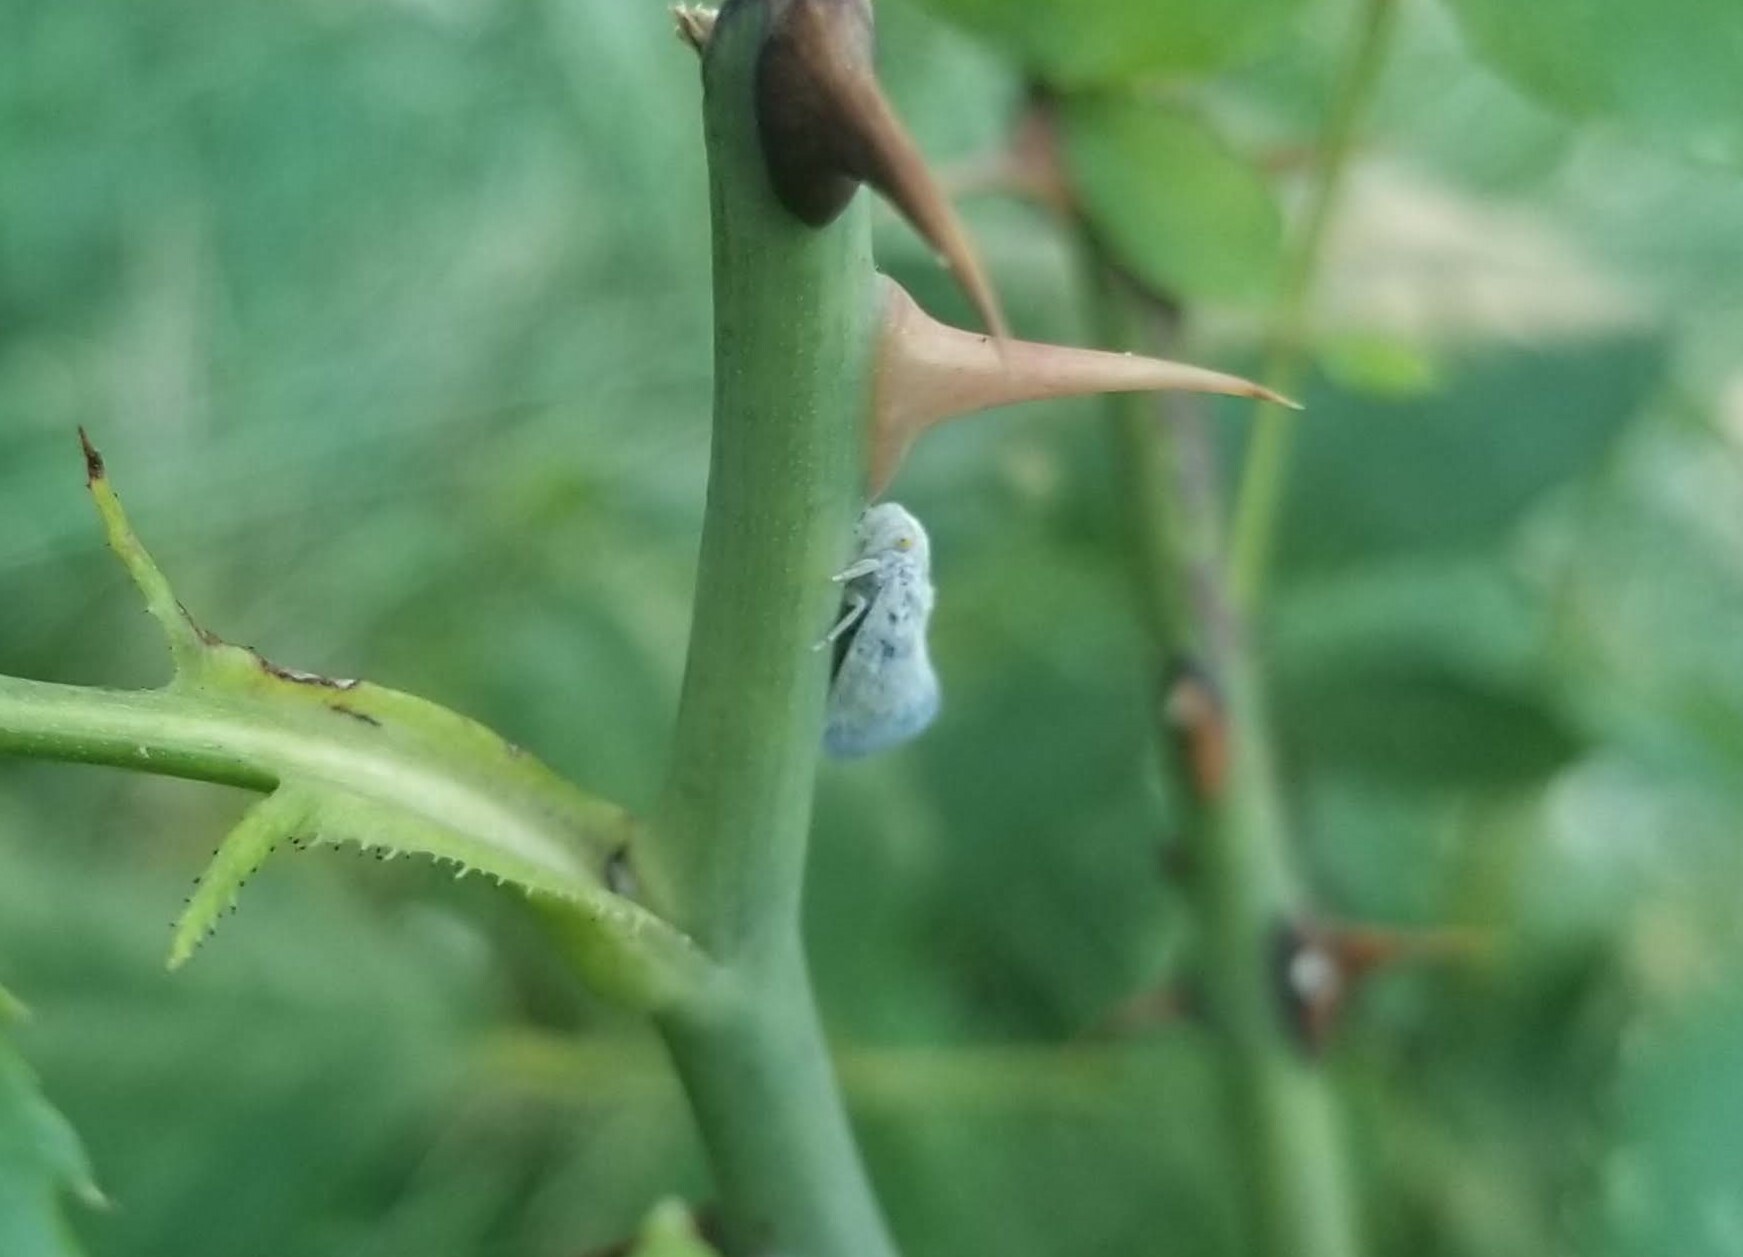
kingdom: Animalia
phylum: Arthropoda
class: Insecta
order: Hemiptera
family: Flatidae
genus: Metcalfa
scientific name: Metcalfa pruinosa
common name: Citrus flatid planthopper
